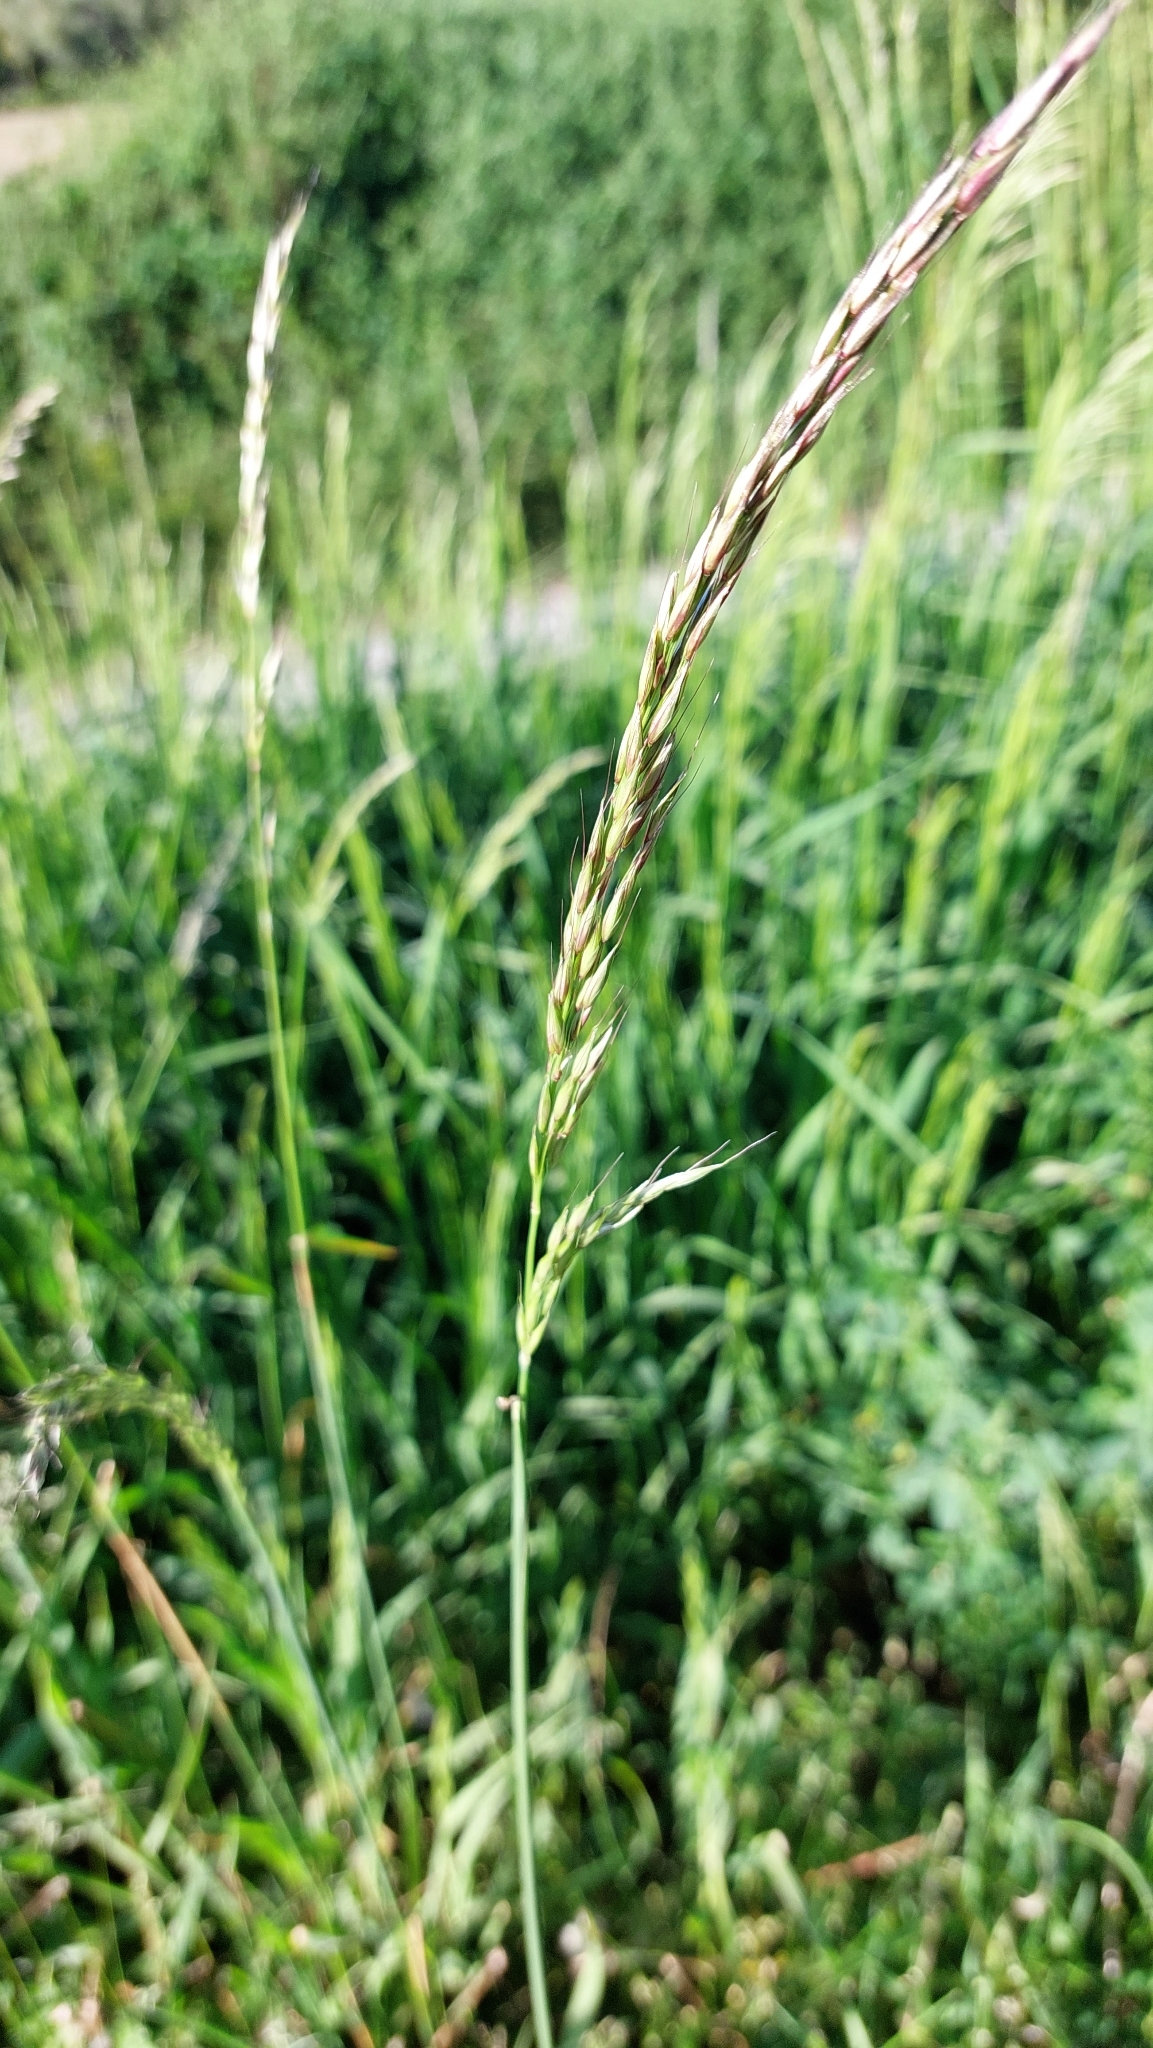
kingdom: Plantae
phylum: Tracheophyta
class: Liliopsida
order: Poales
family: Poaceae
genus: Arrhenatherum
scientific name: Arrhenatherum elatius
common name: Tall oatgrass
